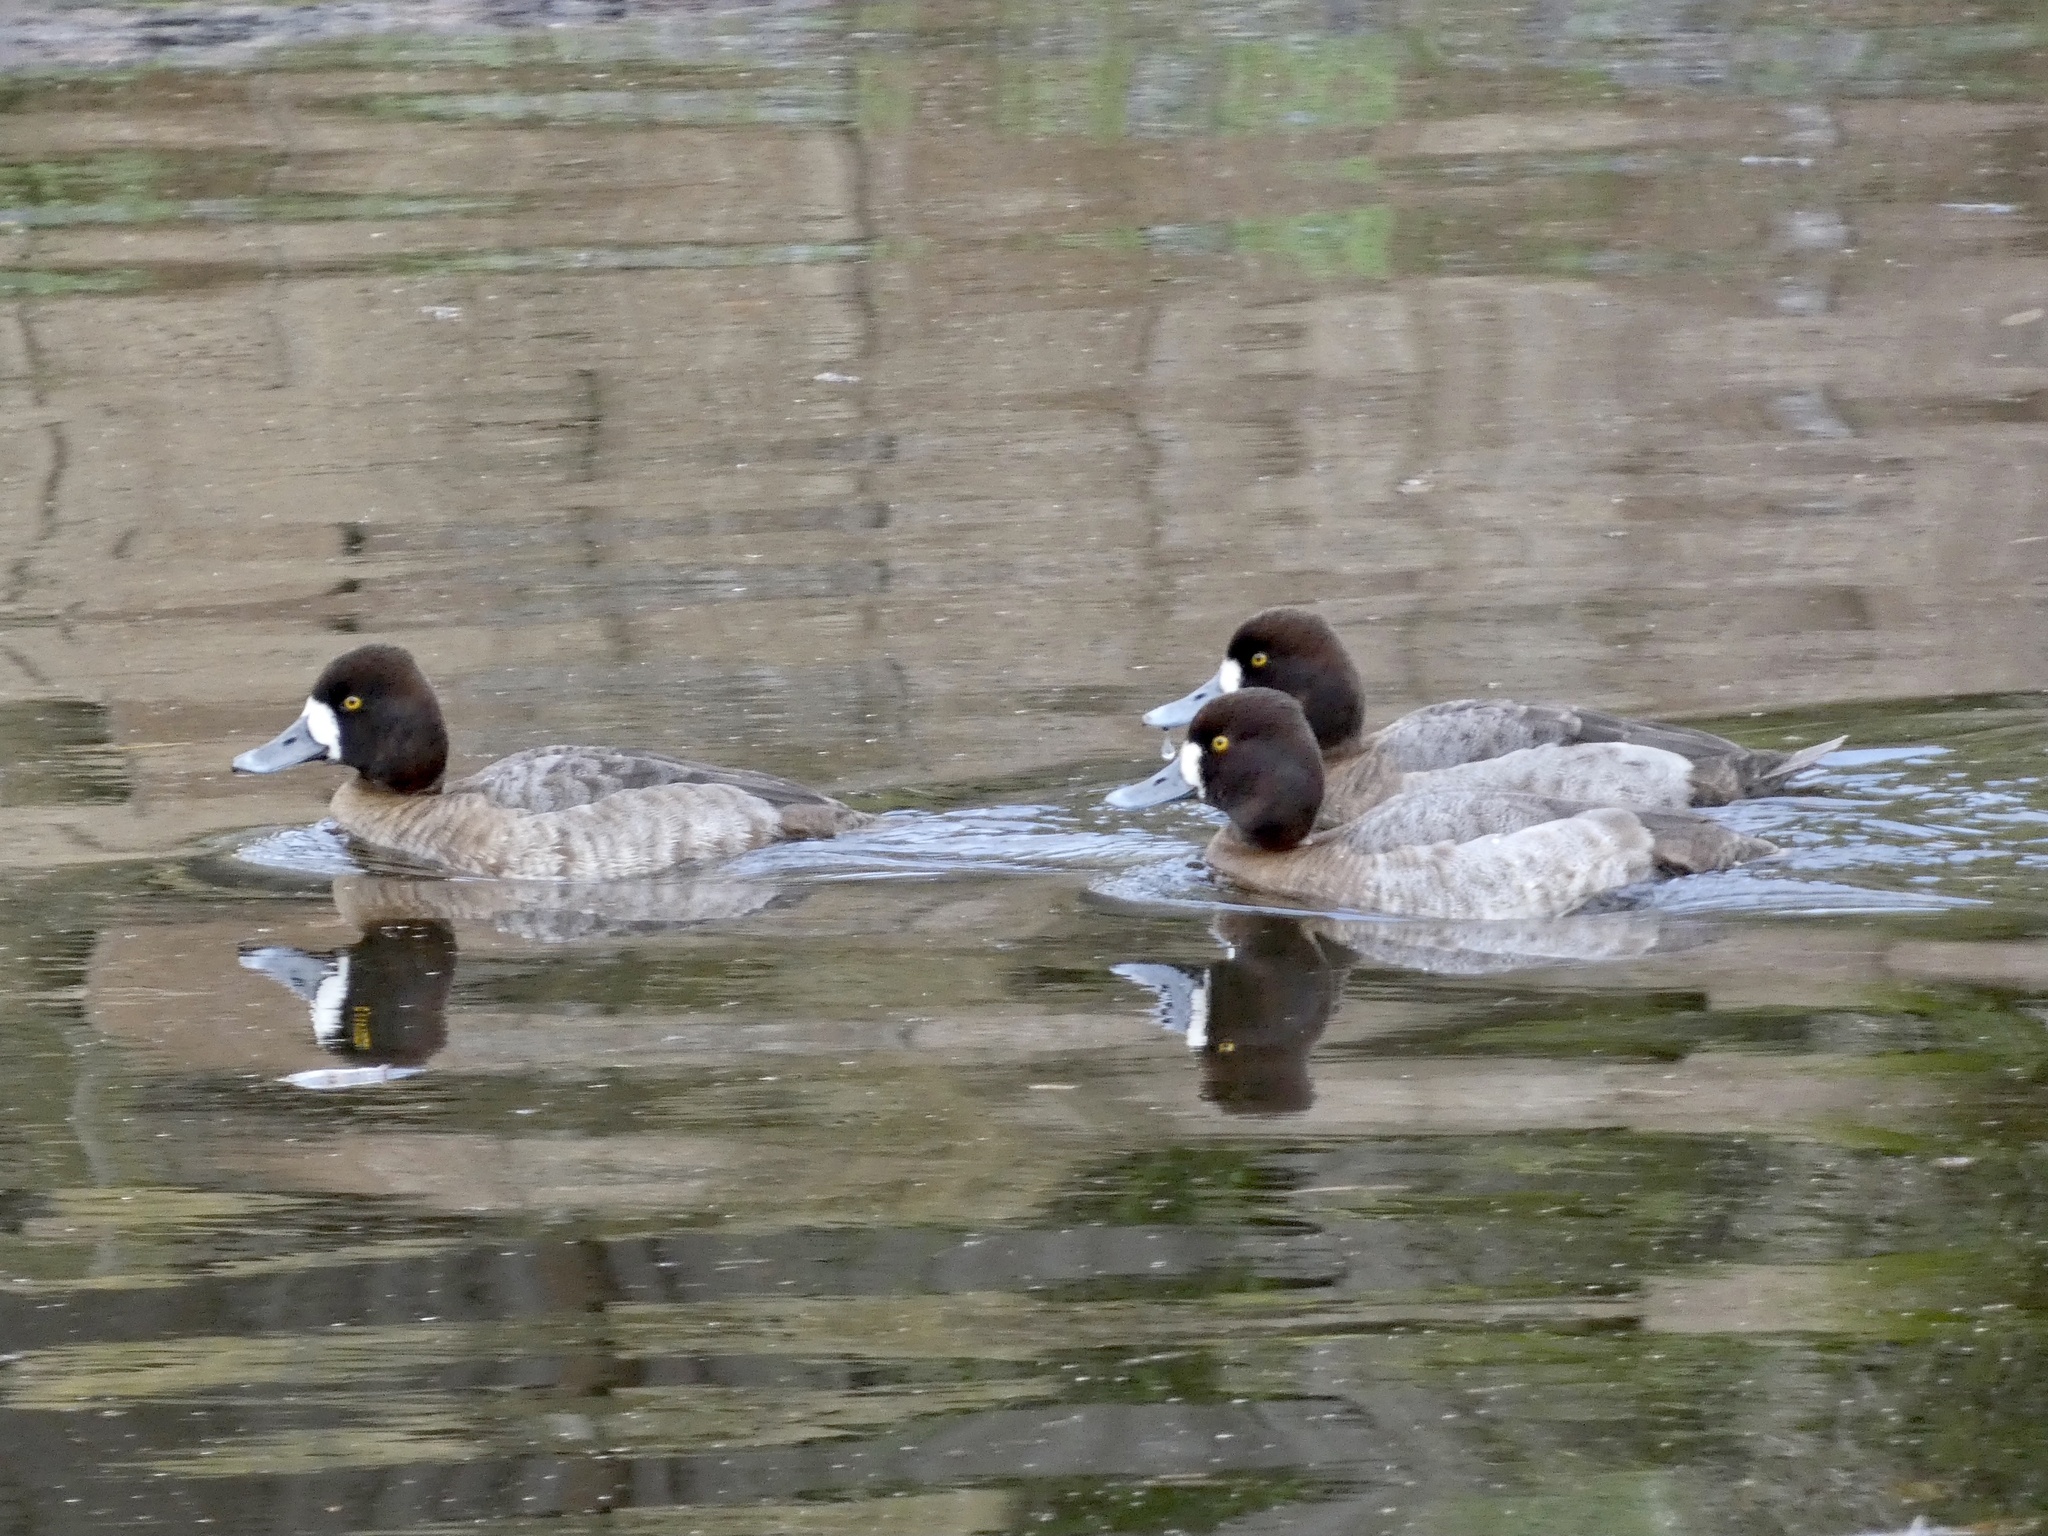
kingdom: Animalia
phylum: Chordata
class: Aves
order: Anseriformes
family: Anatidae
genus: Aythya
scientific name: Aythya affinis
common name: Lesser scaup
